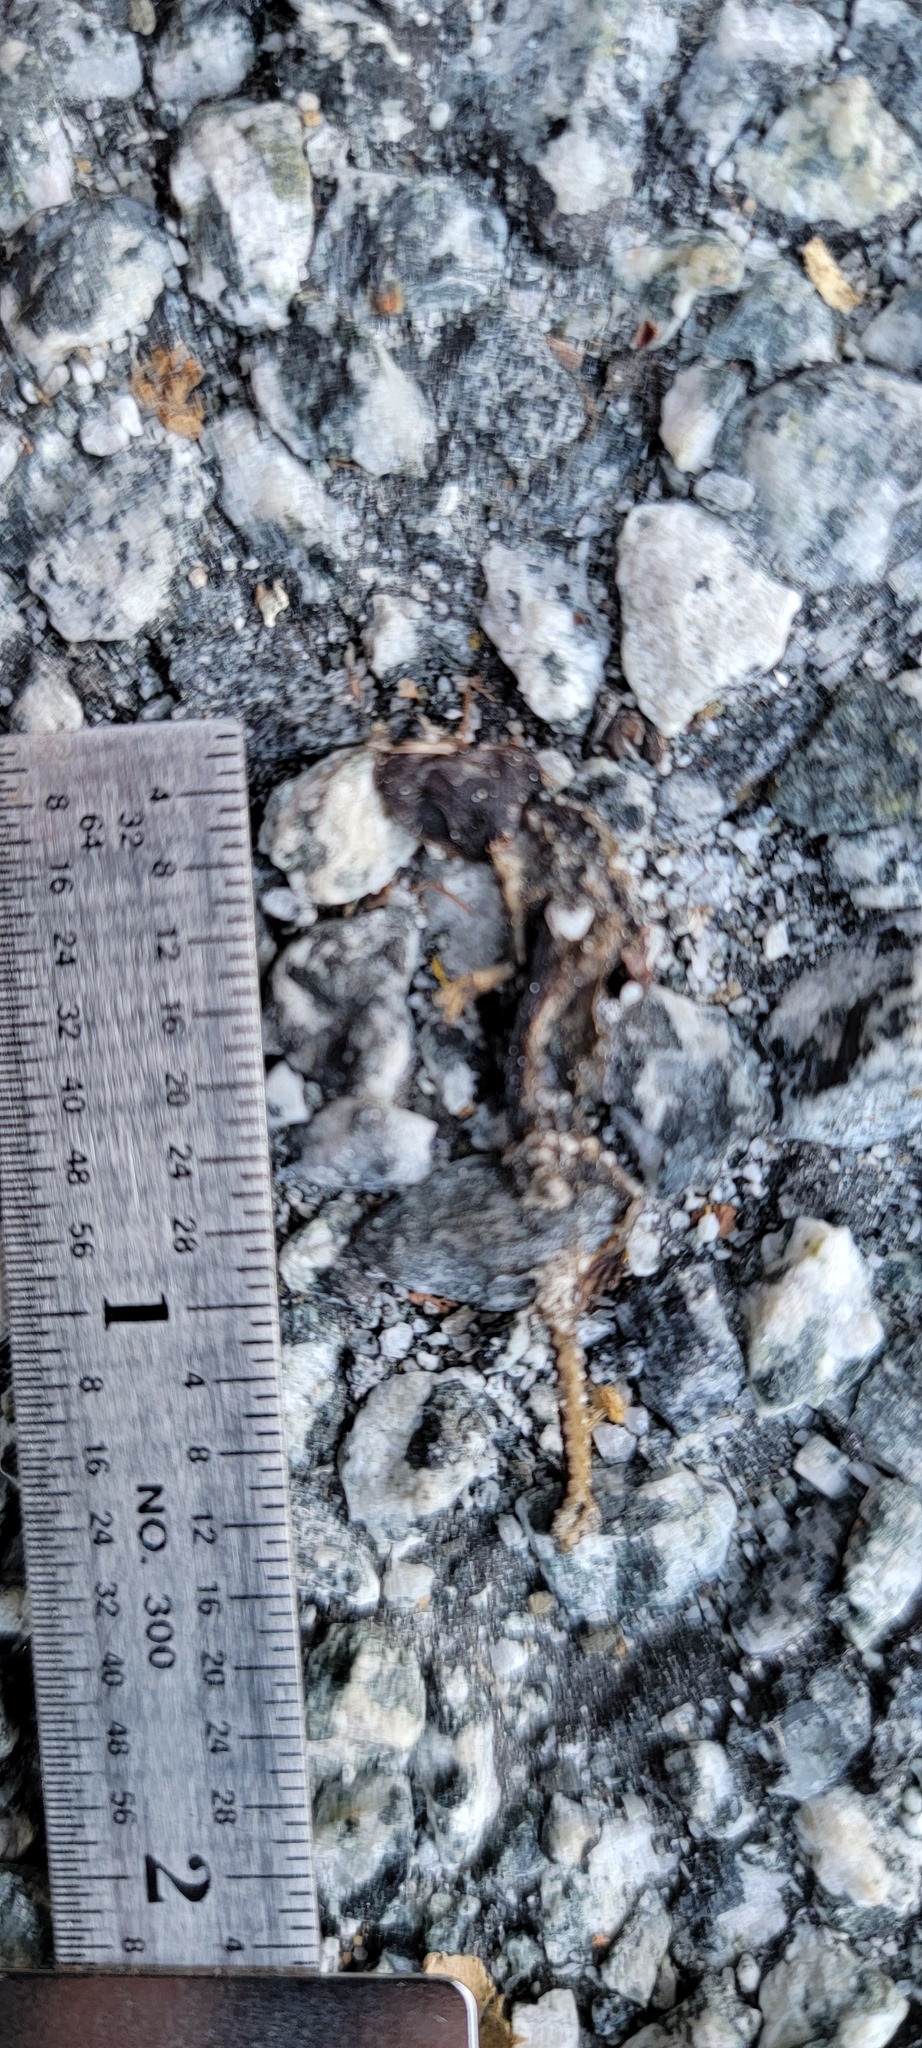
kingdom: Animalia
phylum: Chordata
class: Amphibia
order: Caudata
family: Salamandridae
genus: Taricha
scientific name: Taricha
